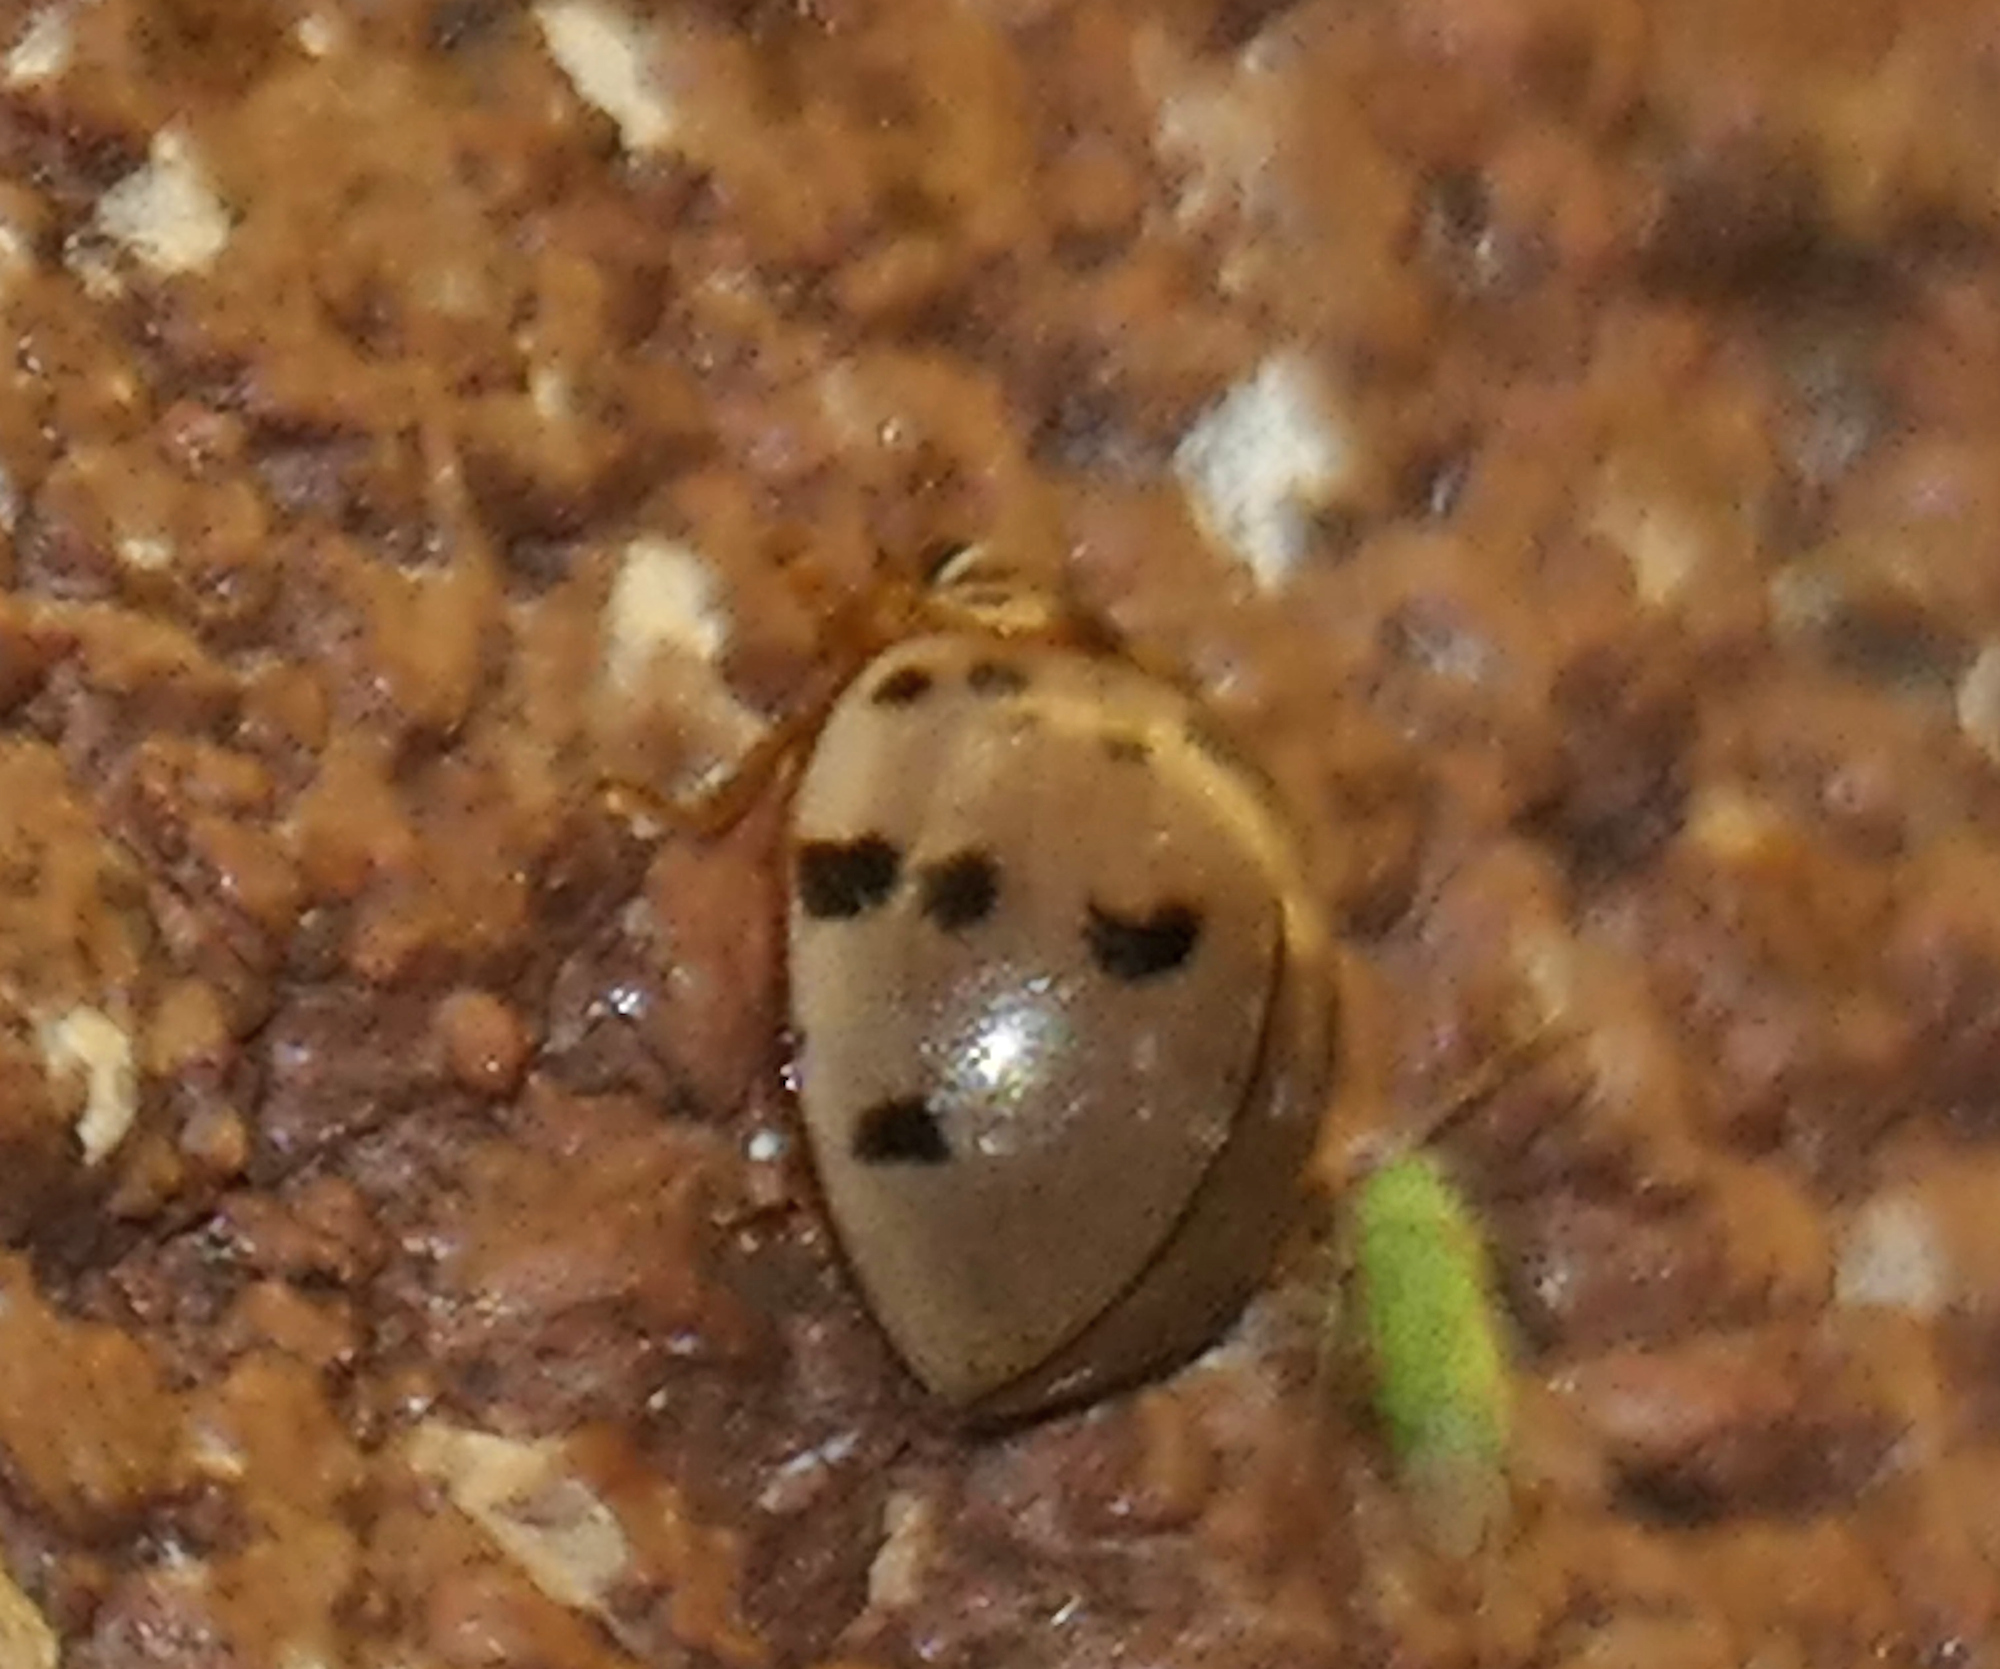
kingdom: Animalia
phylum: Arthropoda
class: Insecta
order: Coleoptera
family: Coccinellidae
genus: Olla
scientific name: Olla v-nigrum
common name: Ashy gray lady beetle
